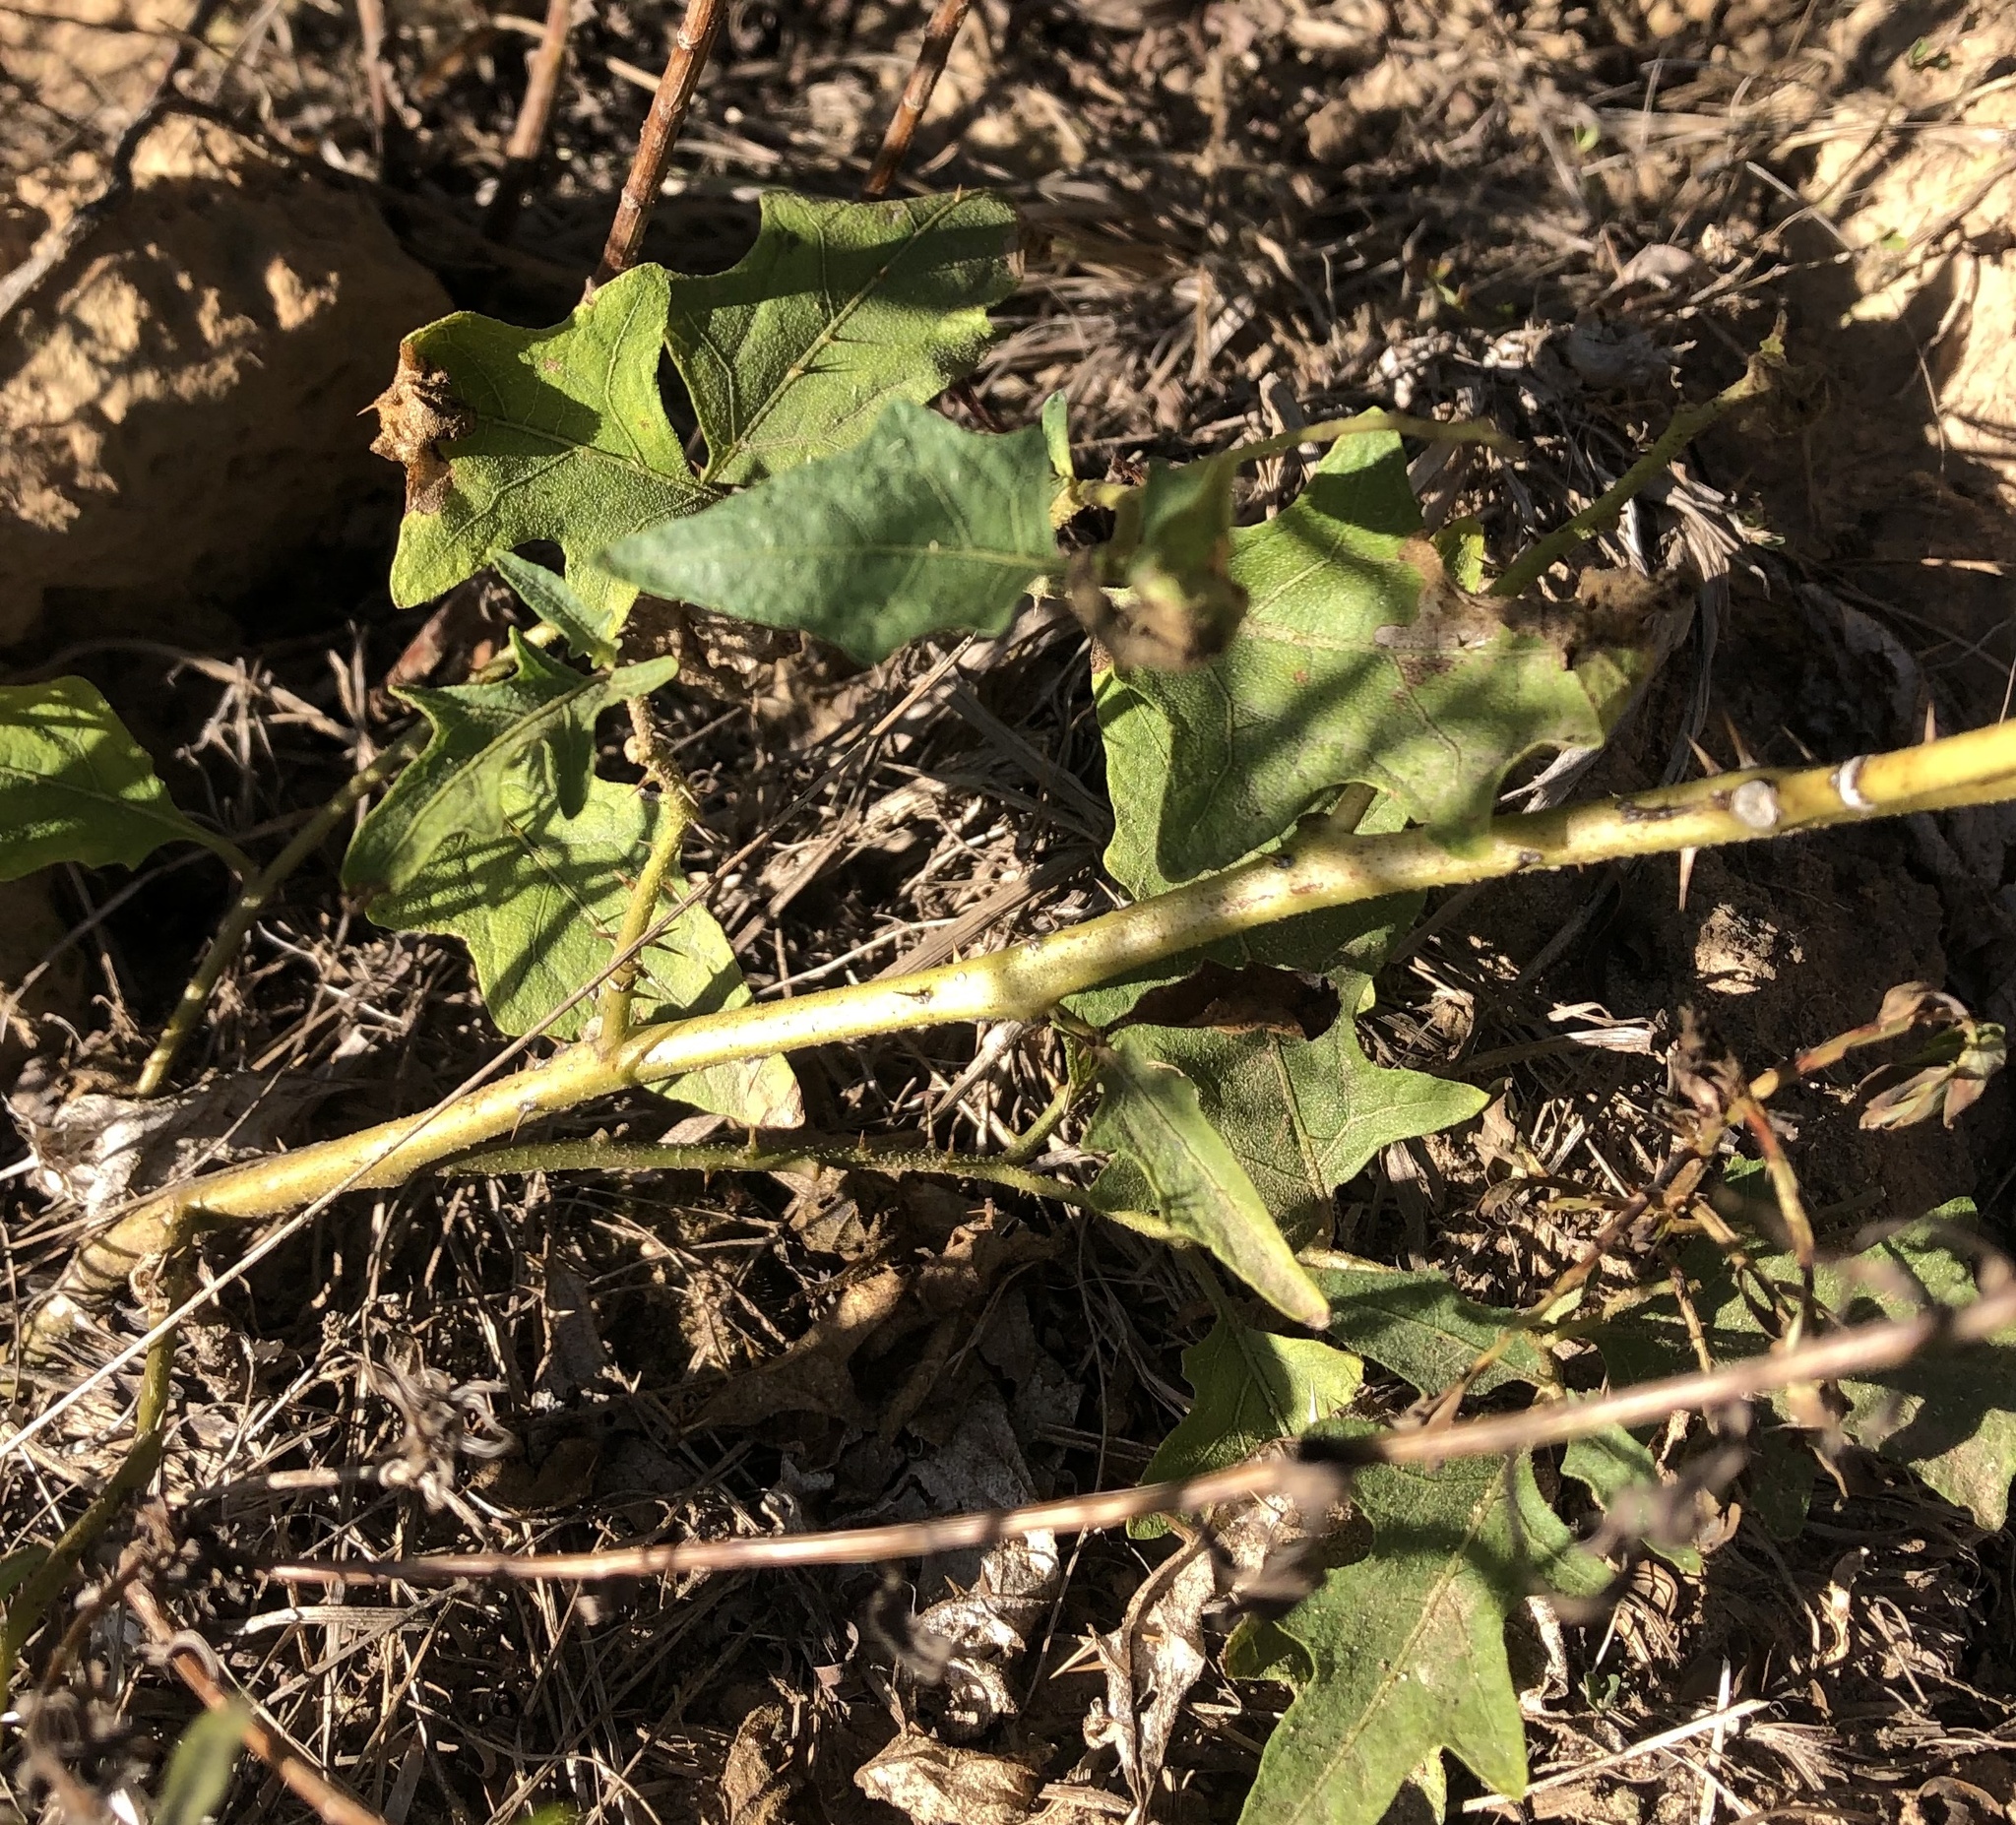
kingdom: Plantae
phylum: Tracheophyta
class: Magnoliopsida
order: Solanales
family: Solanaceae
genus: Solanum
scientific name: Solanum carolinense
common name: Horse-nettle
